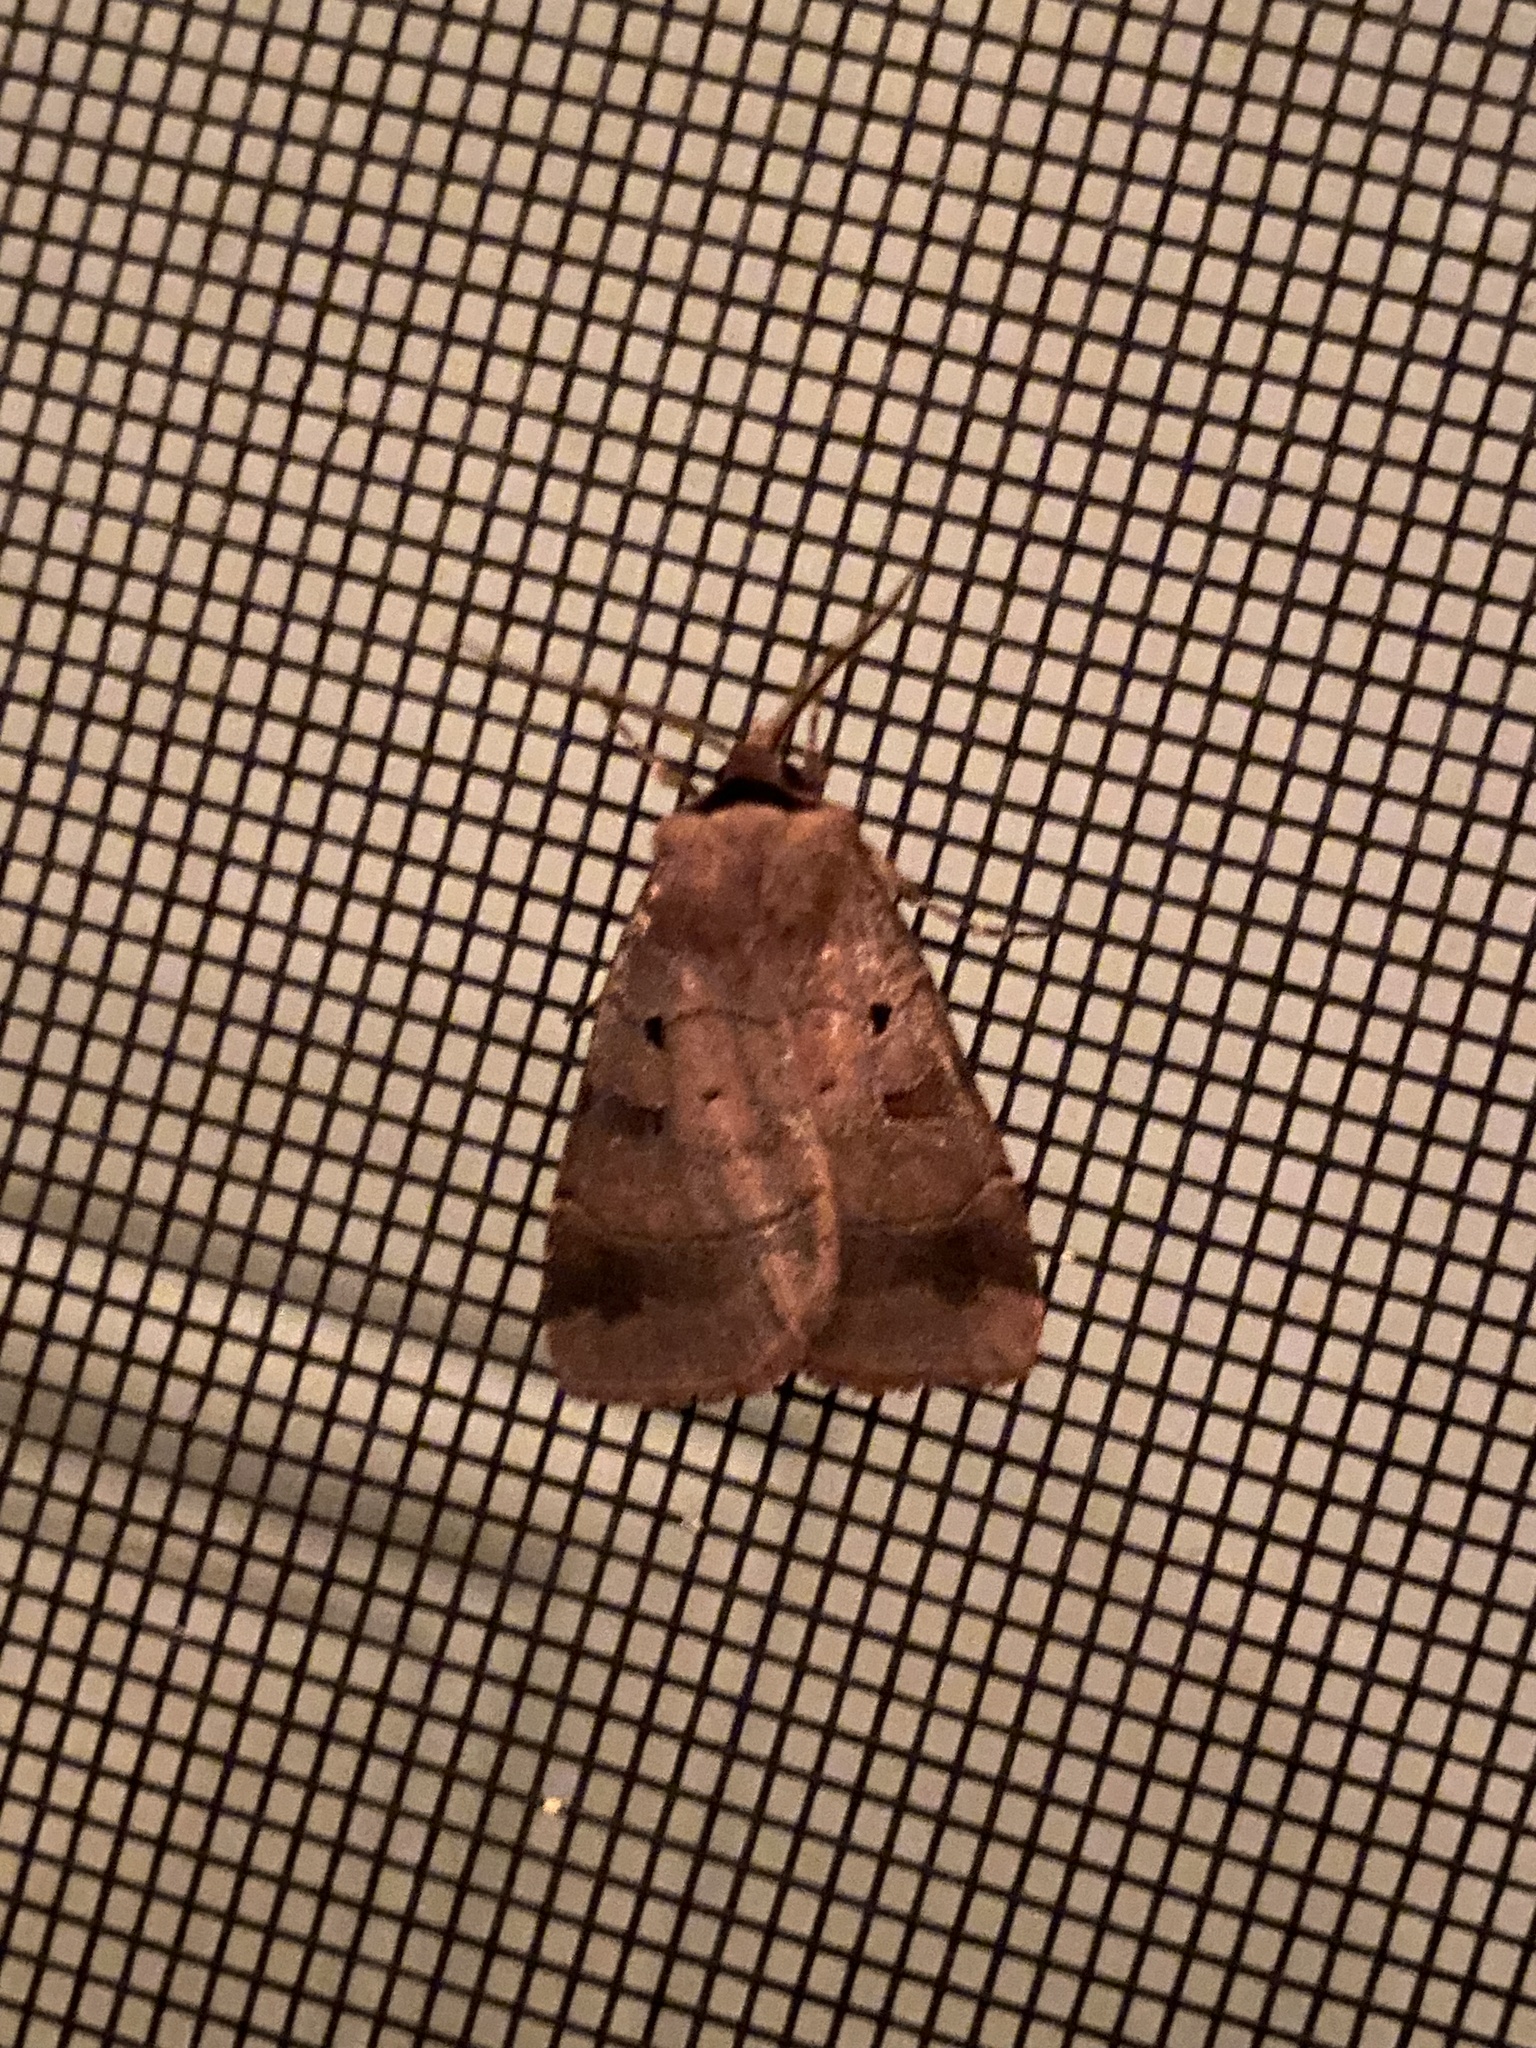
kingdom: Animalia
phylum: Arthropoda
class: Insecta
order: Lepidoptera
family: Noctuidae
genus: Agnorisma
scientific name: Agnorisma badinodis
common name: Pale-banded dart
